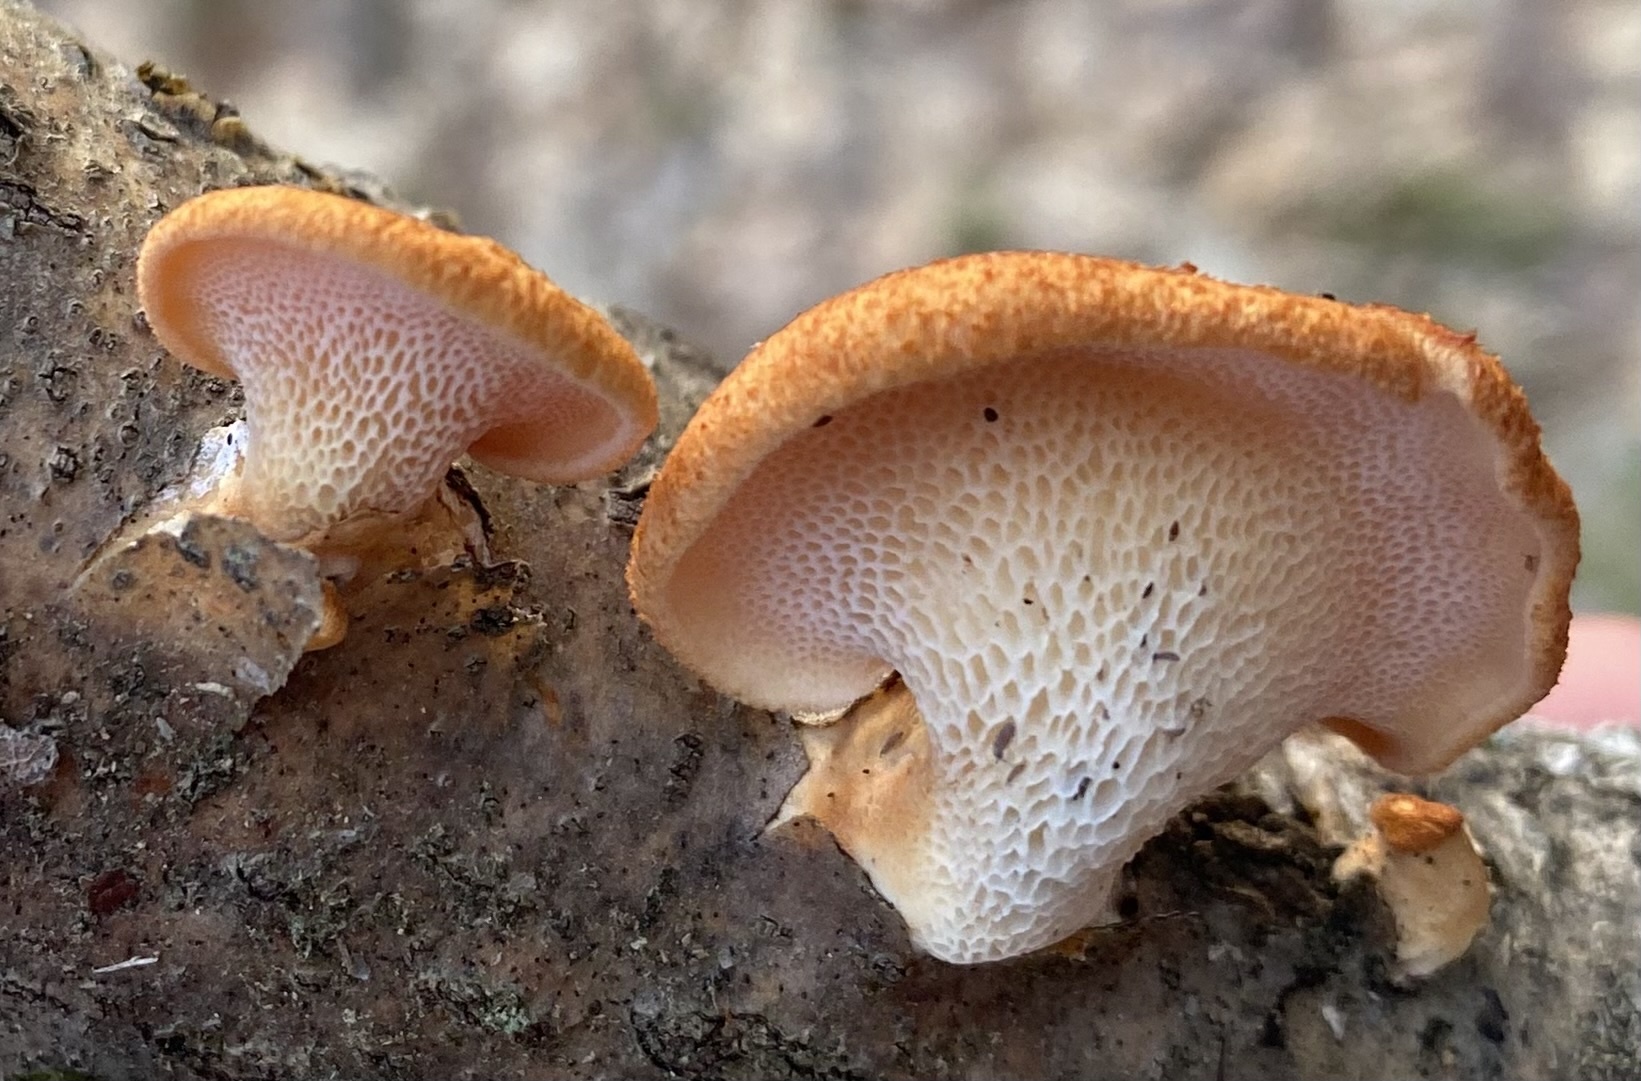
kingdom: Fungi
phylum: Basidiomycota
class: Agaricomycetes
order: Polyporales
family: Polyporaceae
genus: Neofavolus
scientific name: Neofavolus alveolaris
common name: Hexagonal-pored polypore
